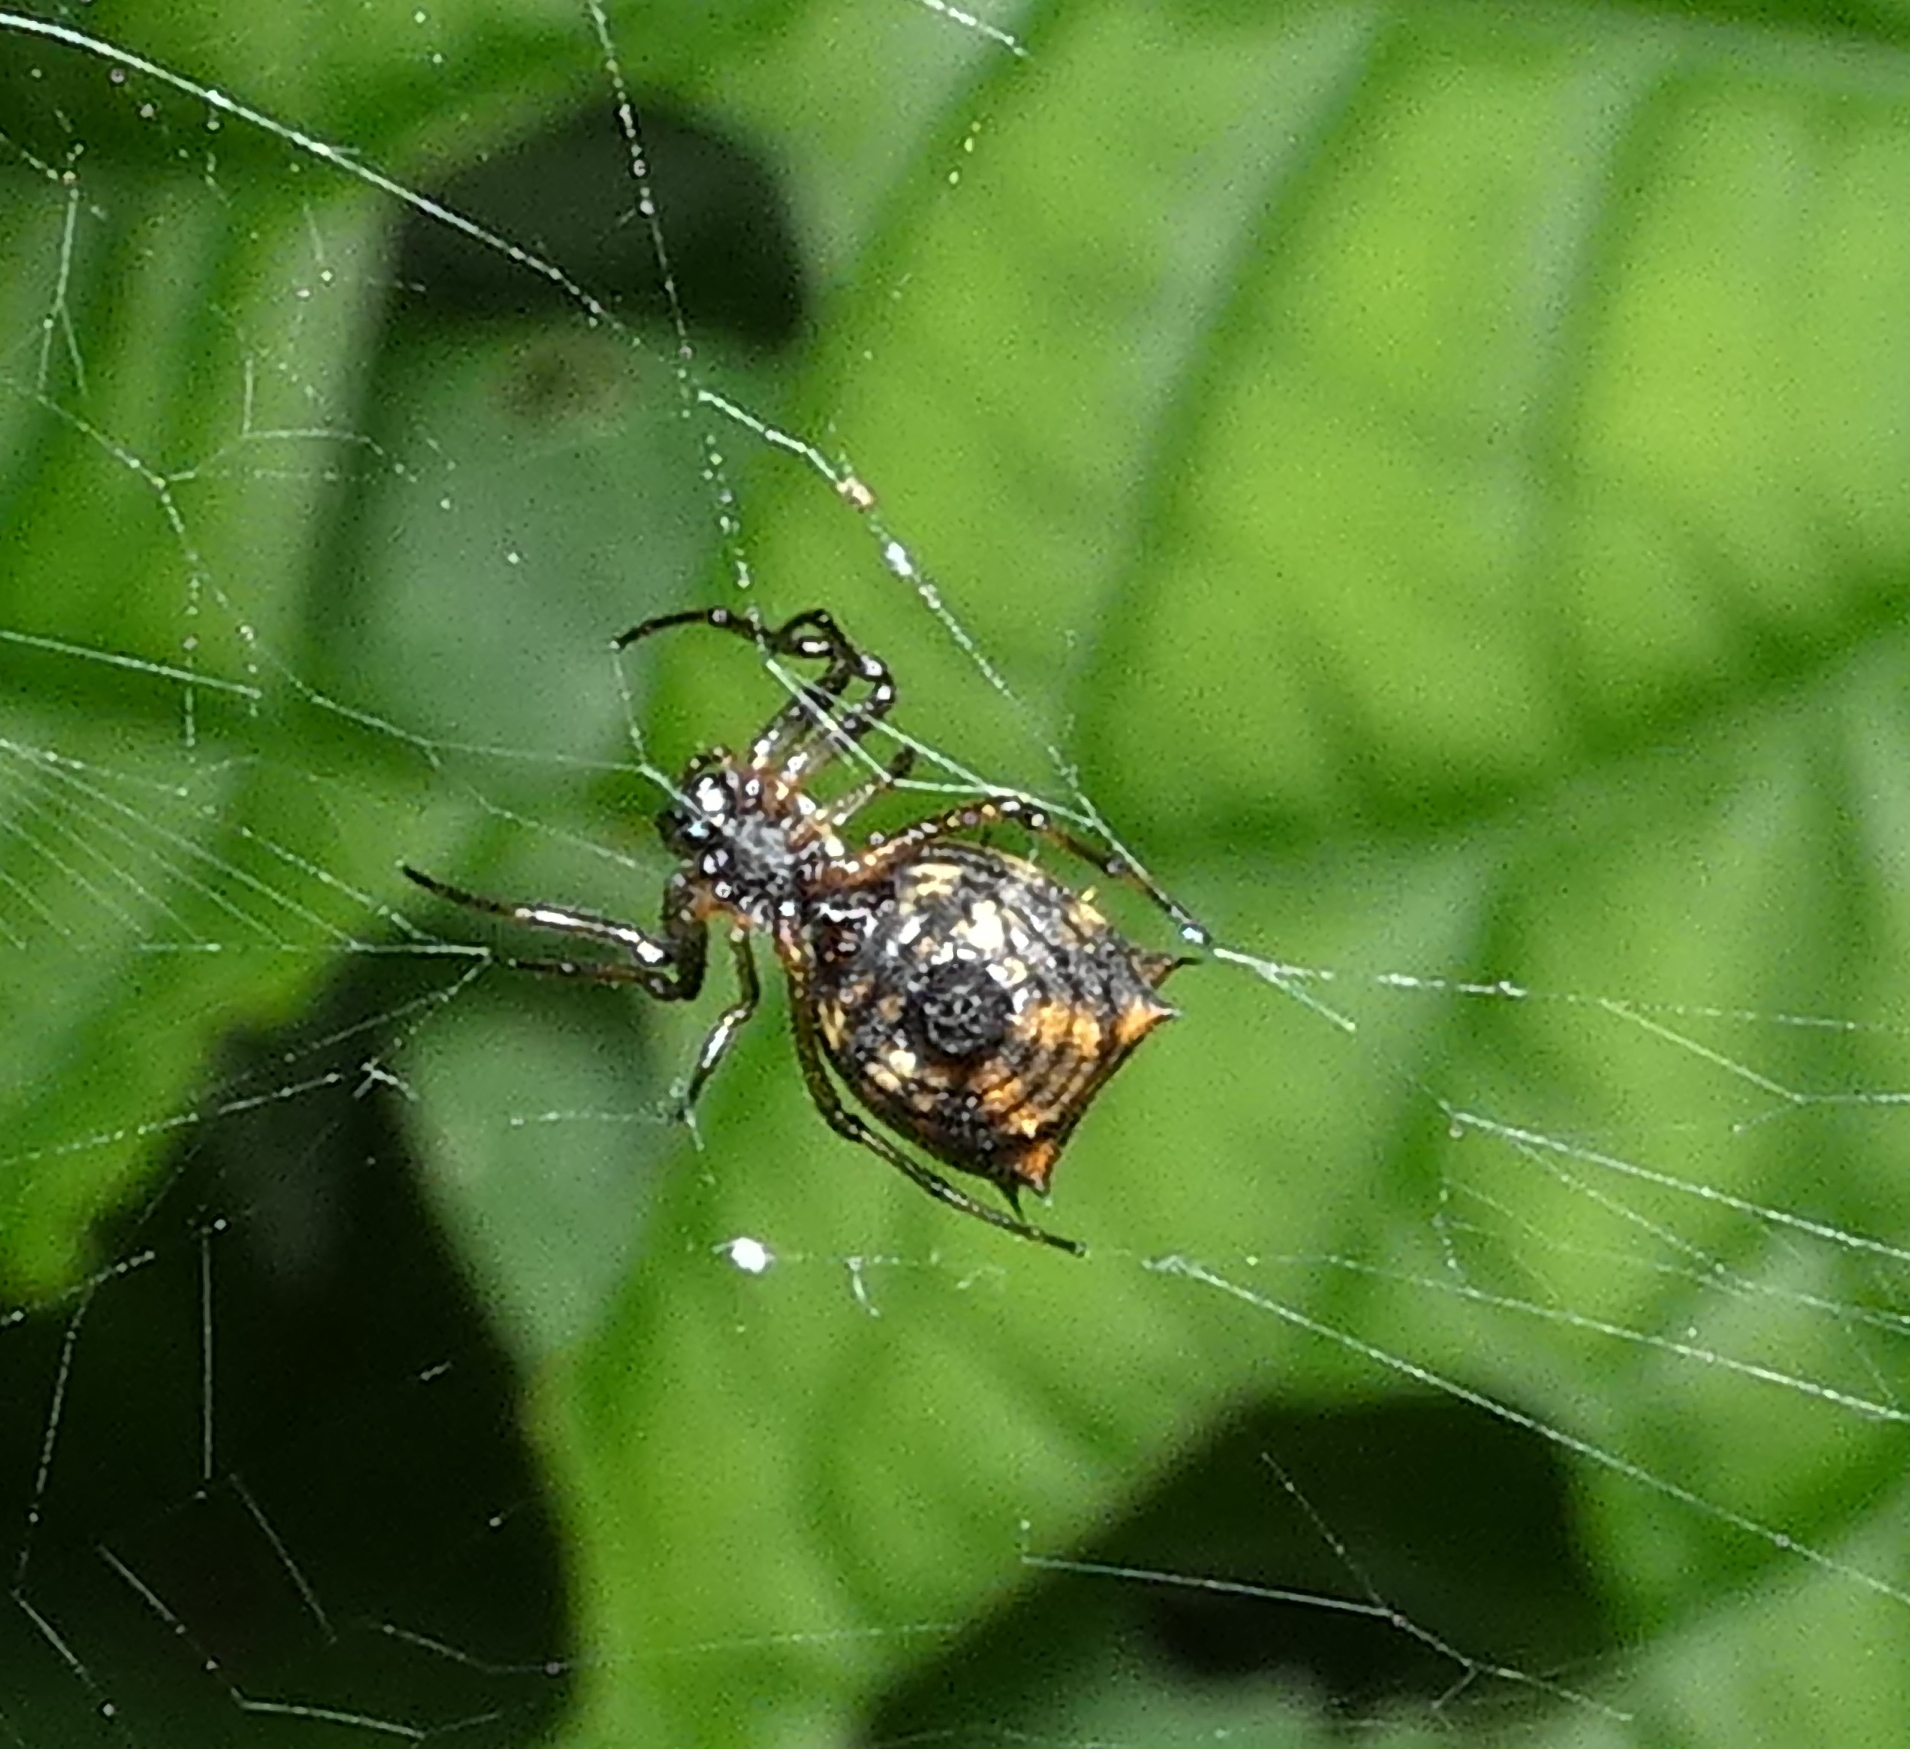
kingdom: Animalia
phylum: Arthropoda
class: Arachnida
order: Araneae
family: Araneidae
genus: Micrathena
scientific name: Micrathena picta
